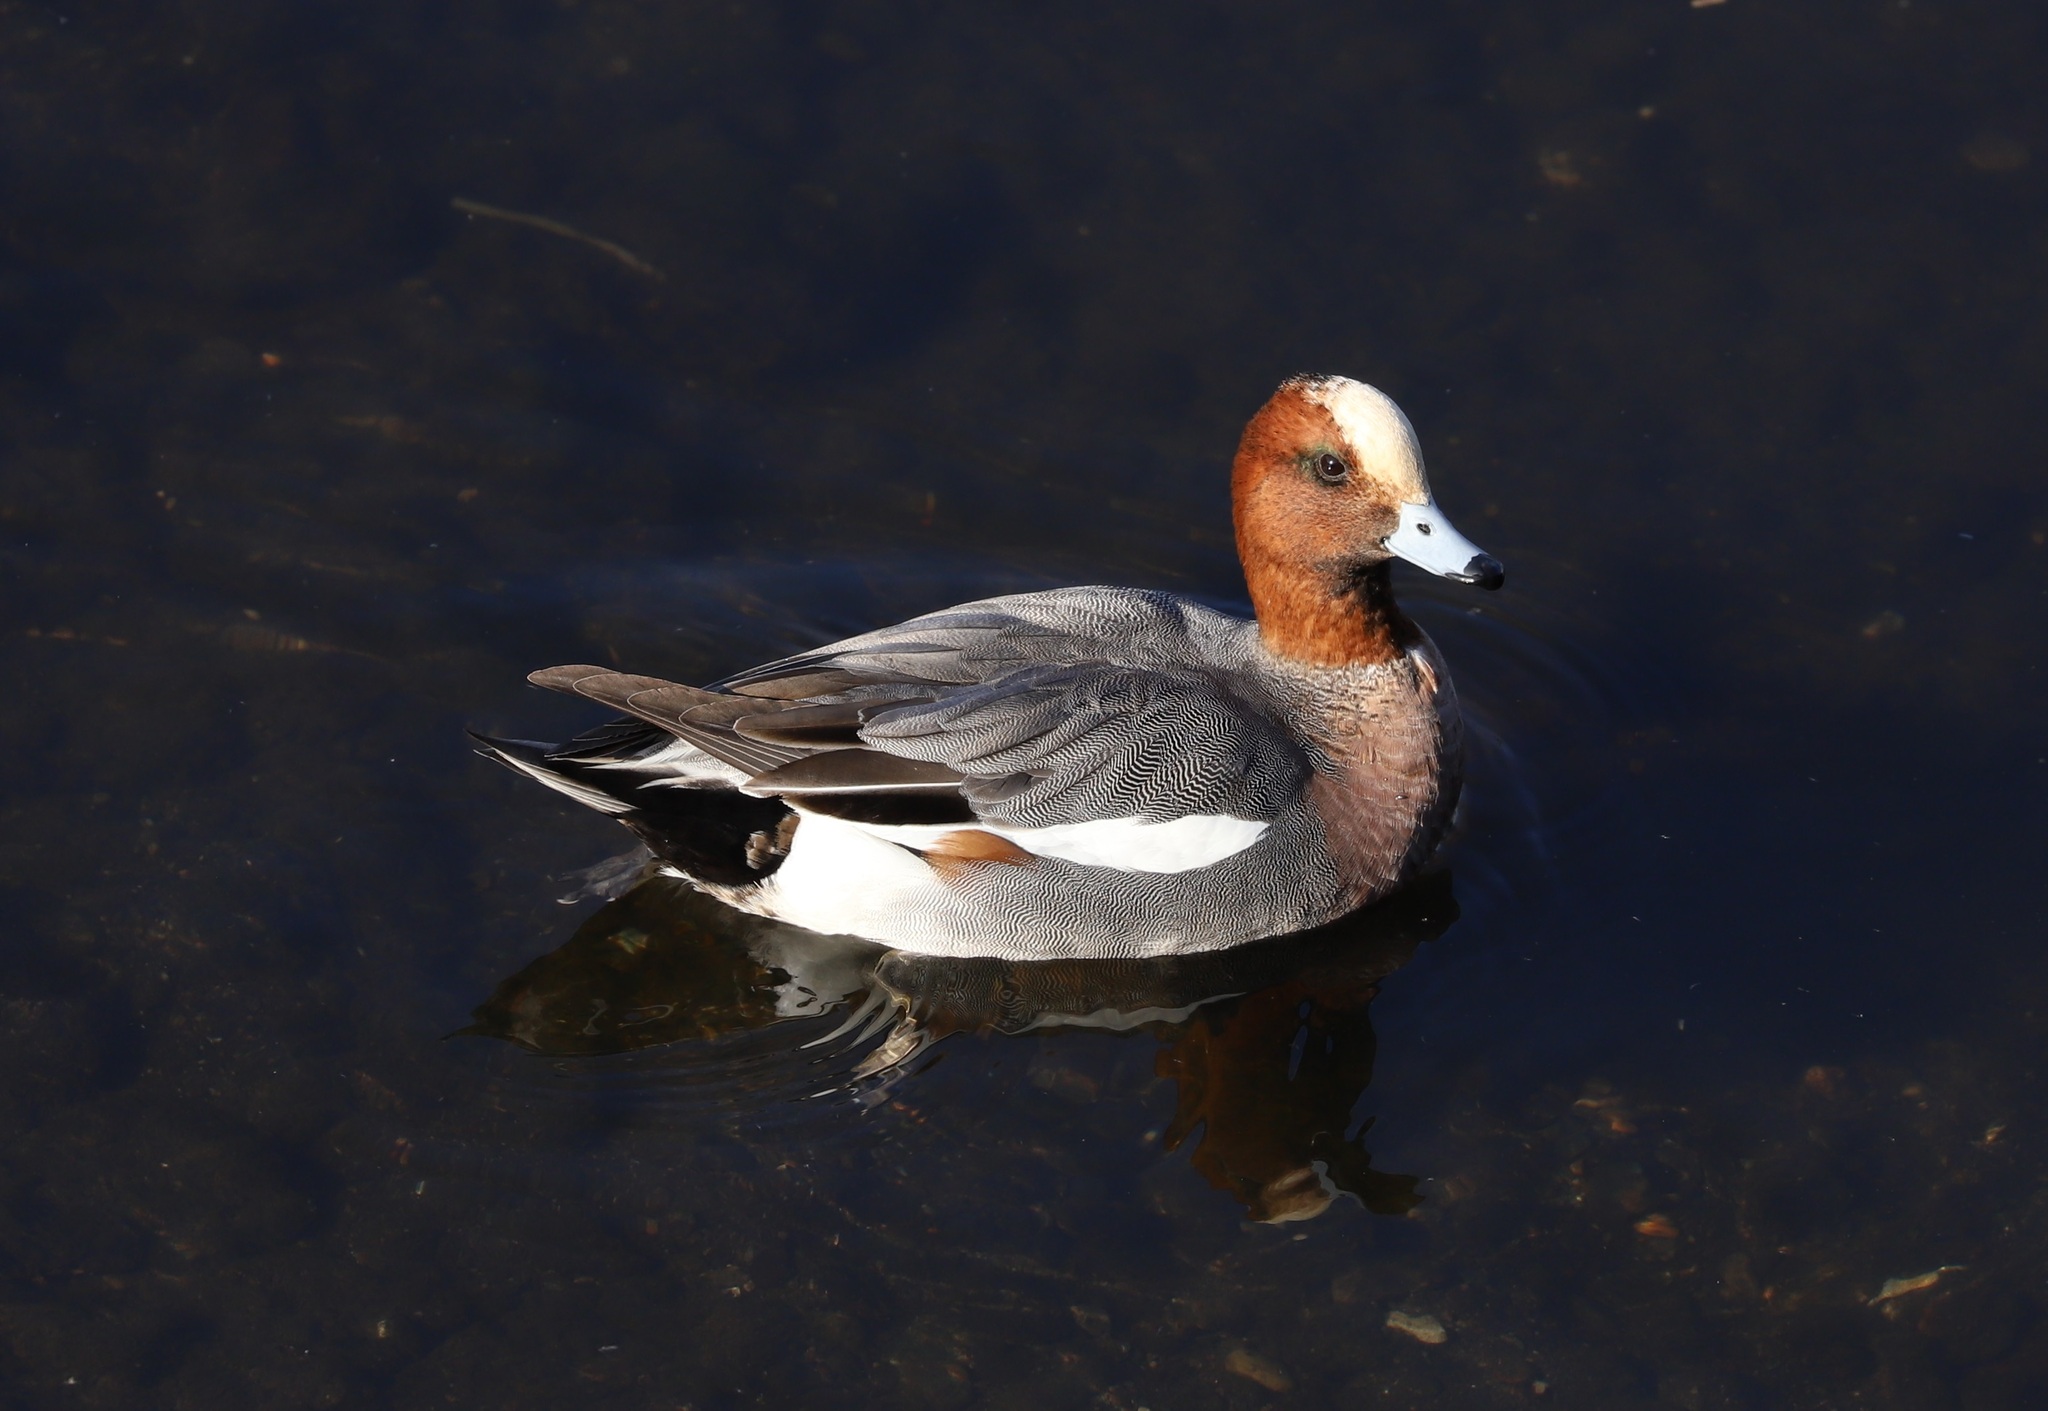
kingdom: Animalia
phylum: Chordata
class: Aves
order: Anseriformes
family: Anatidae
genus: Mareca
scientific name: Mareca penelope
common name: Eurasian wigeon
